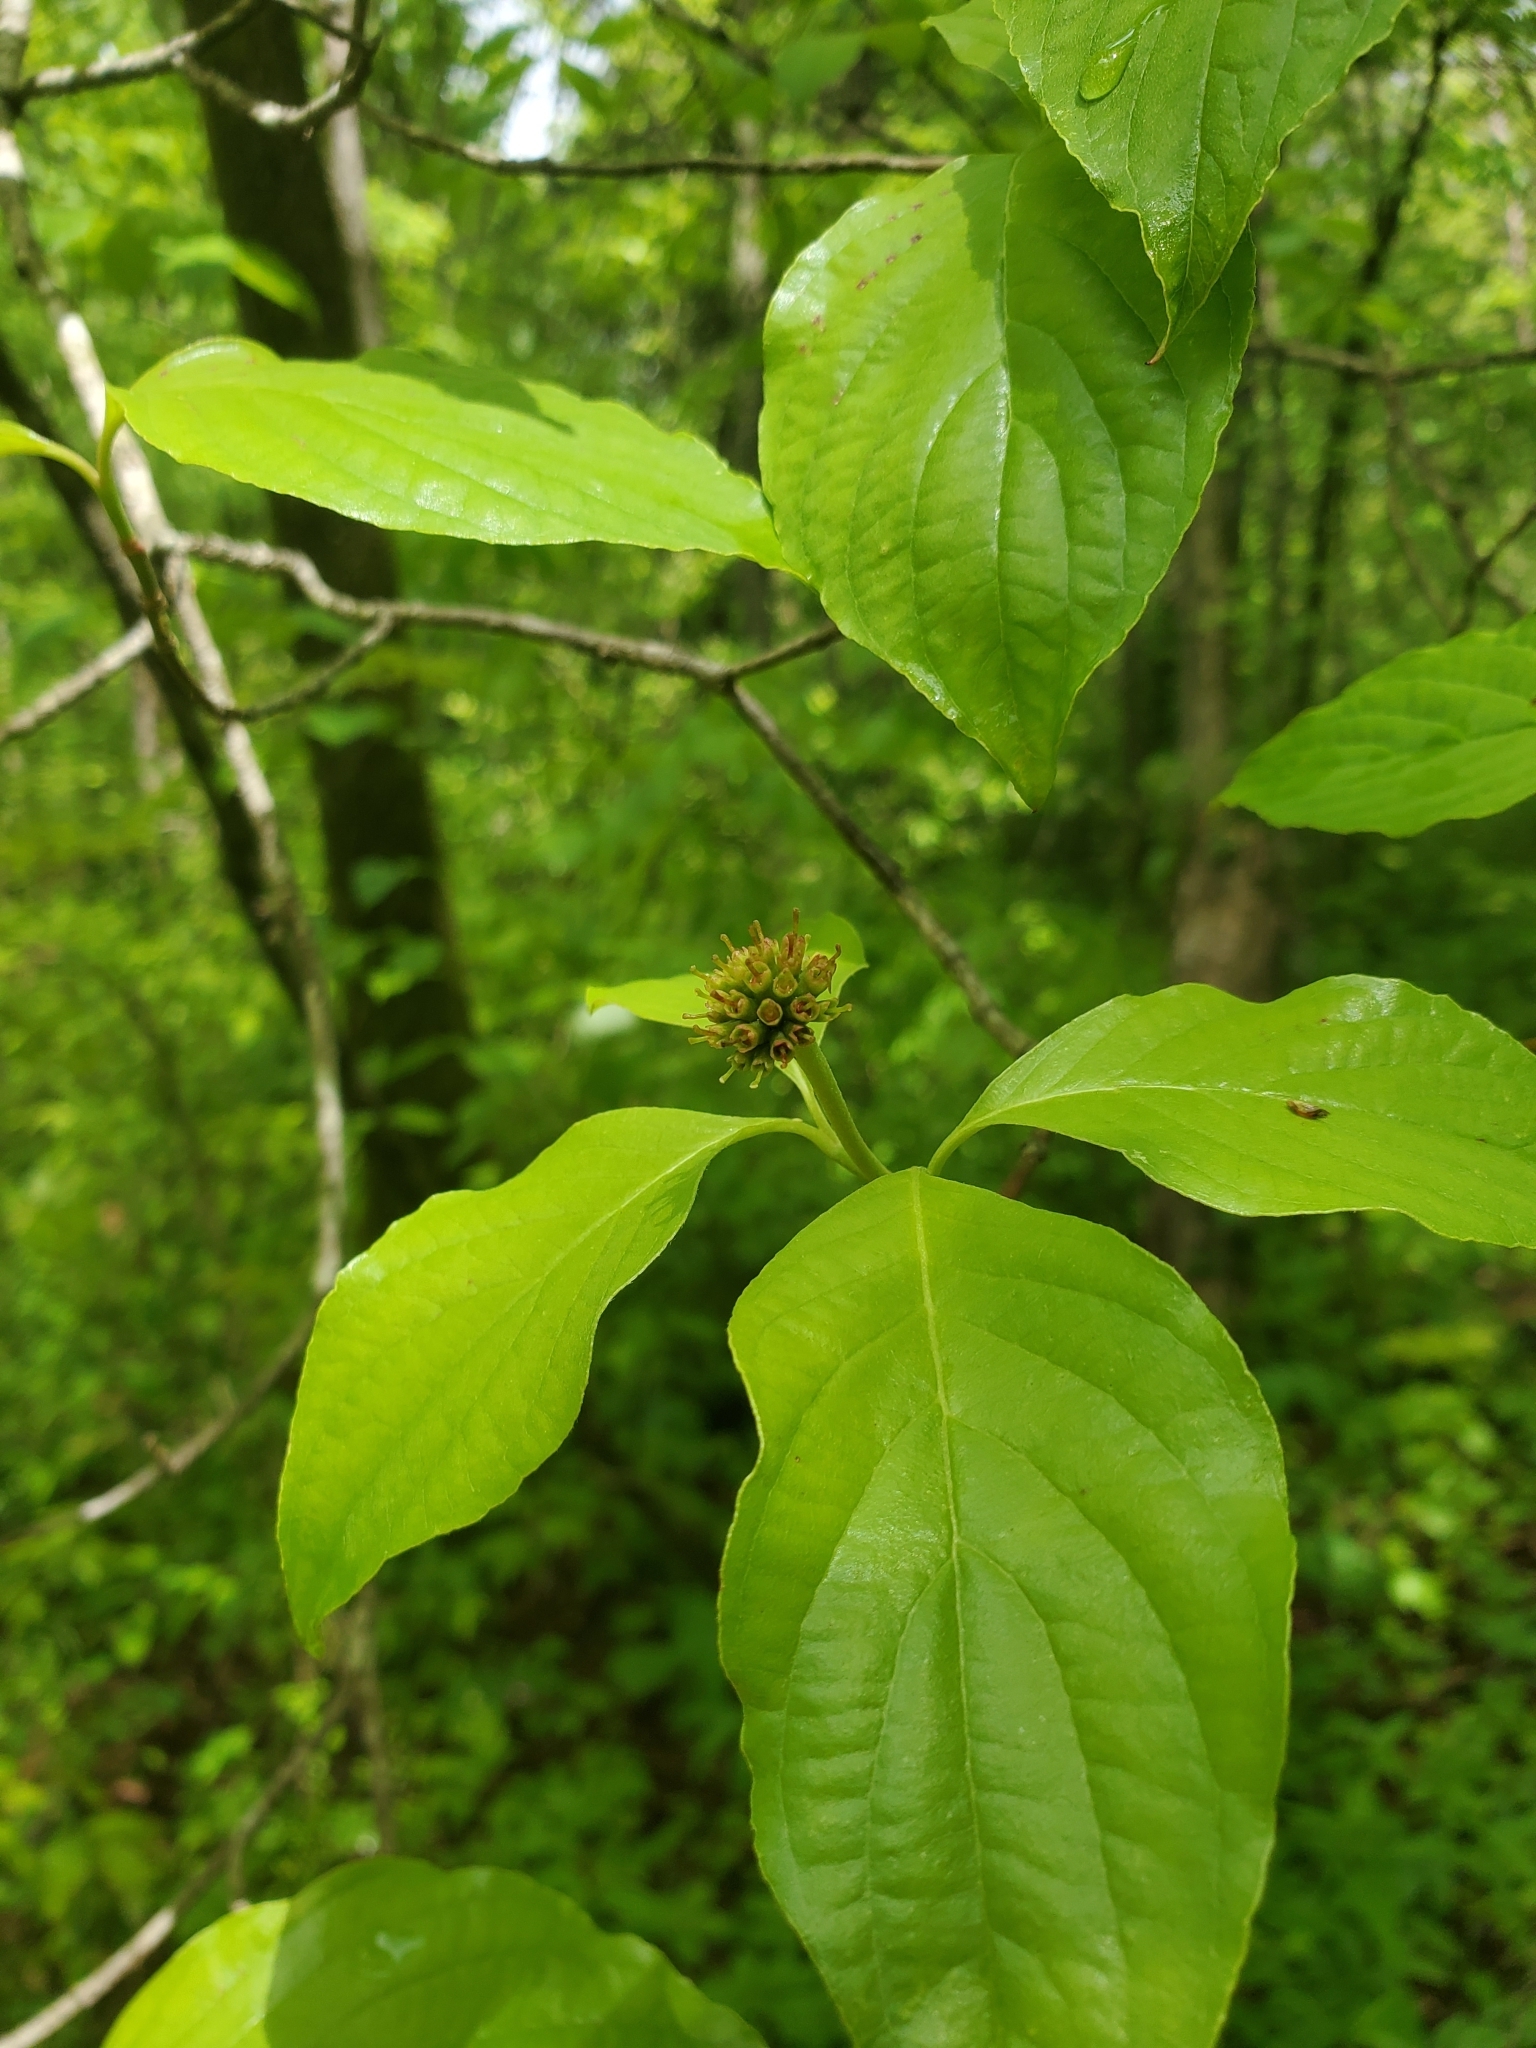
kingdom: Plantae
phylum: Tracheophyta
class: Magnoliopsida
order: Cornales
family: Cornaceae
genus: Cornus
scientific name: Cornus florida
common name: Flowering dogwood
